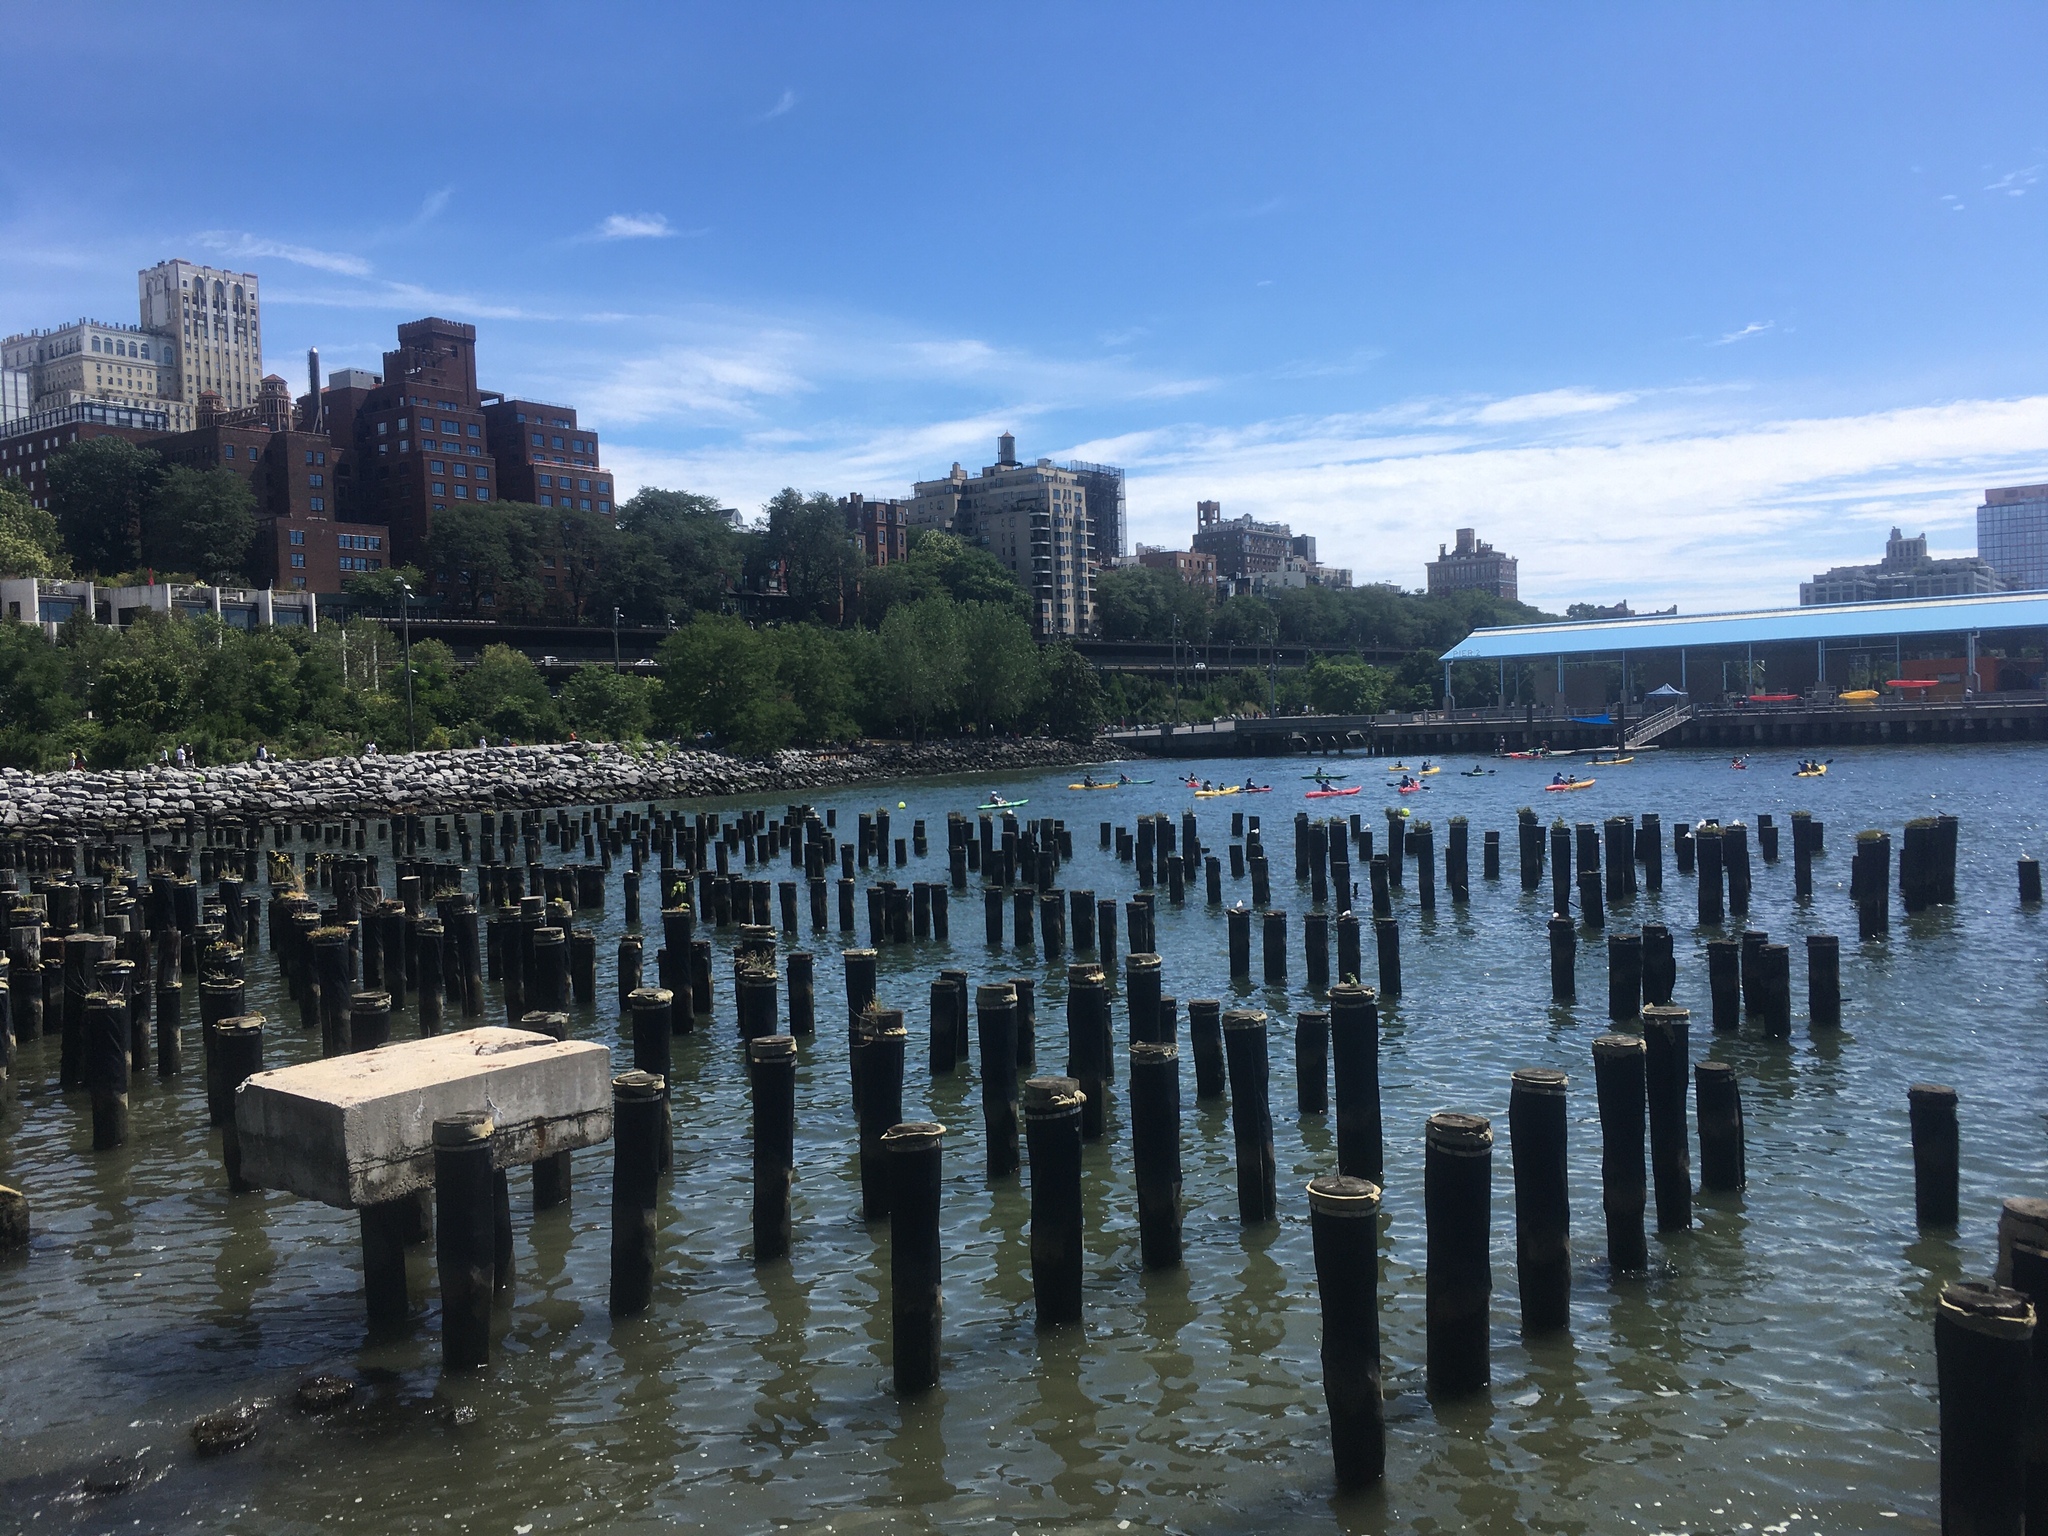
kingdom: Animalia
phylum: Chordata
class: Aves
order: Charadriiformes
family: Laridae
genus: Sterna
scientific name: Sterna hirundo
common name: Common tern
